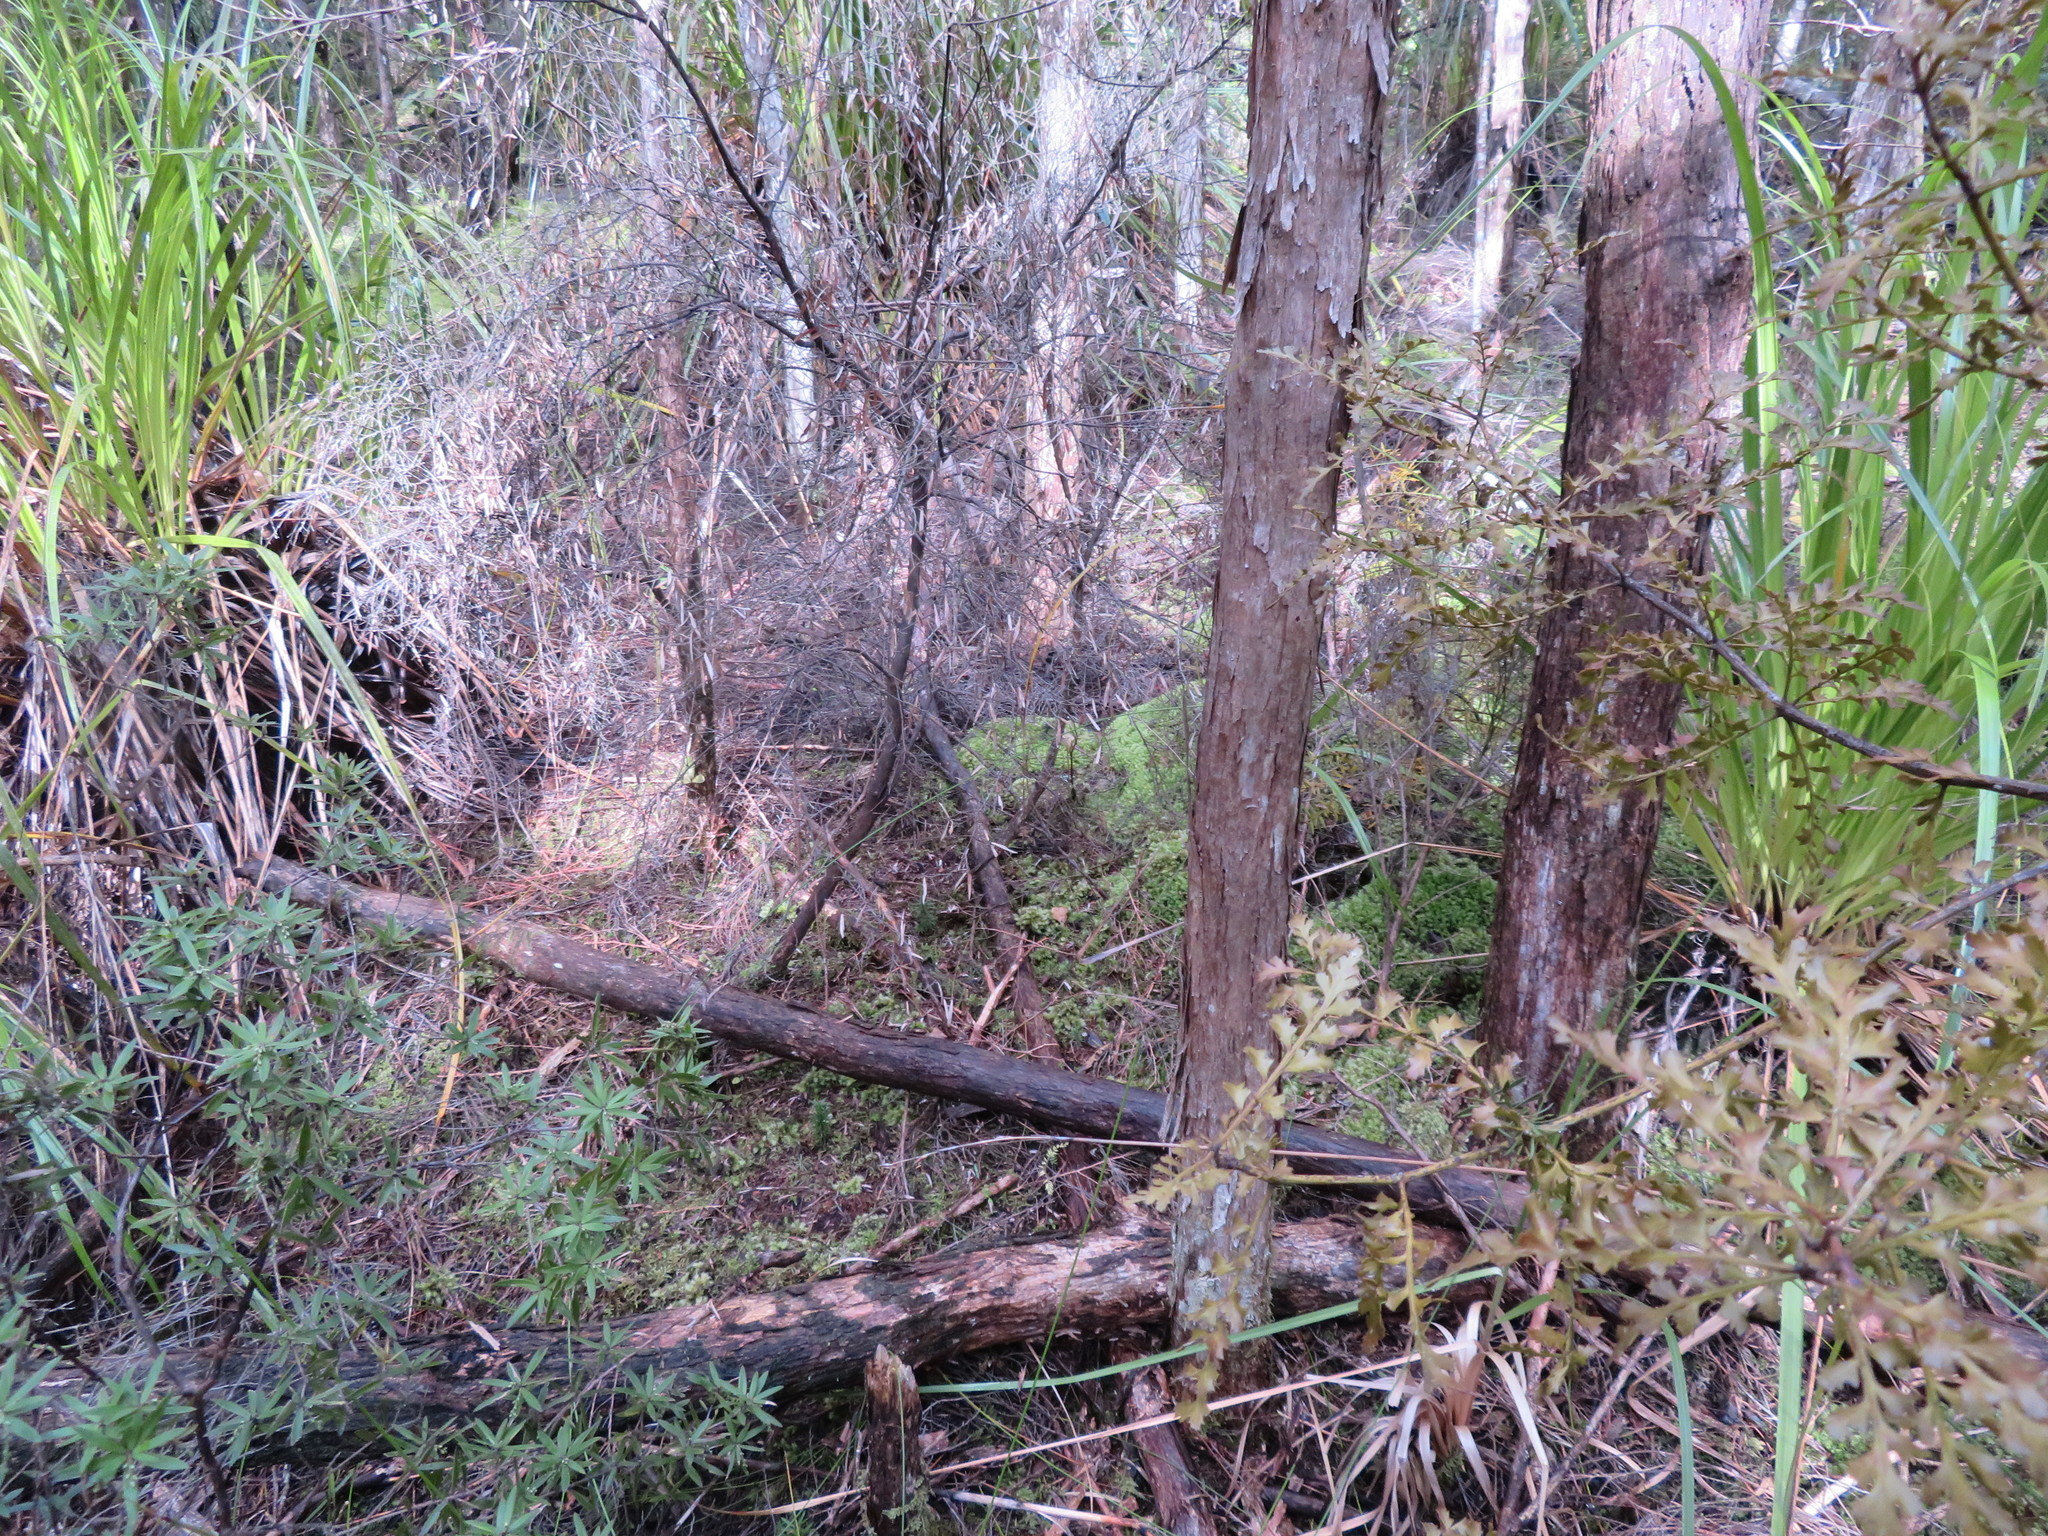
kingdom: Plantae
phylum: Tracheophyta
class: Pinopsida
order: Pinales
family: Phyllocladaceae
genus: Phyllocladus
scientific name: Phyllocladus trichomanoides
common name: Celery pine
